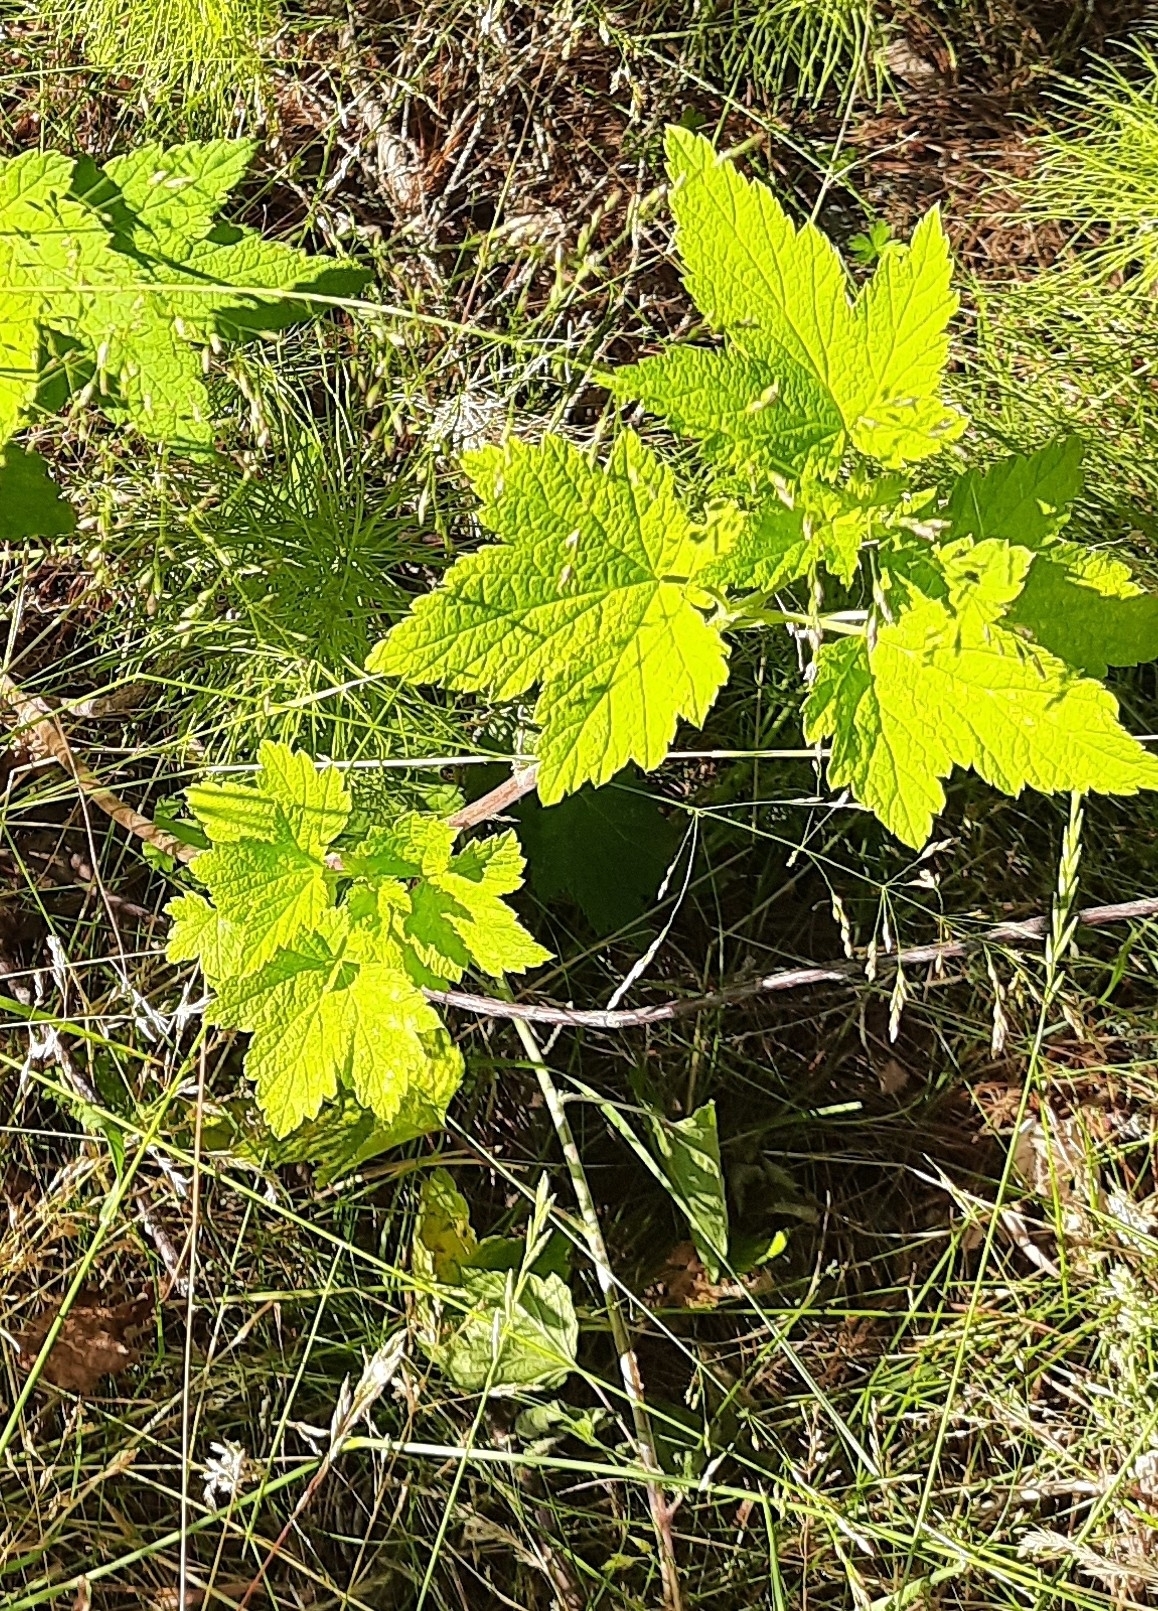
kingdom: Plantae
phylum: Tracheophyta
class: Magnoliopsida
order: Saxifragales
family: Grossulariaceae
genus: Ribes
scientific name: Ribes nigrum
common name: Black currant
